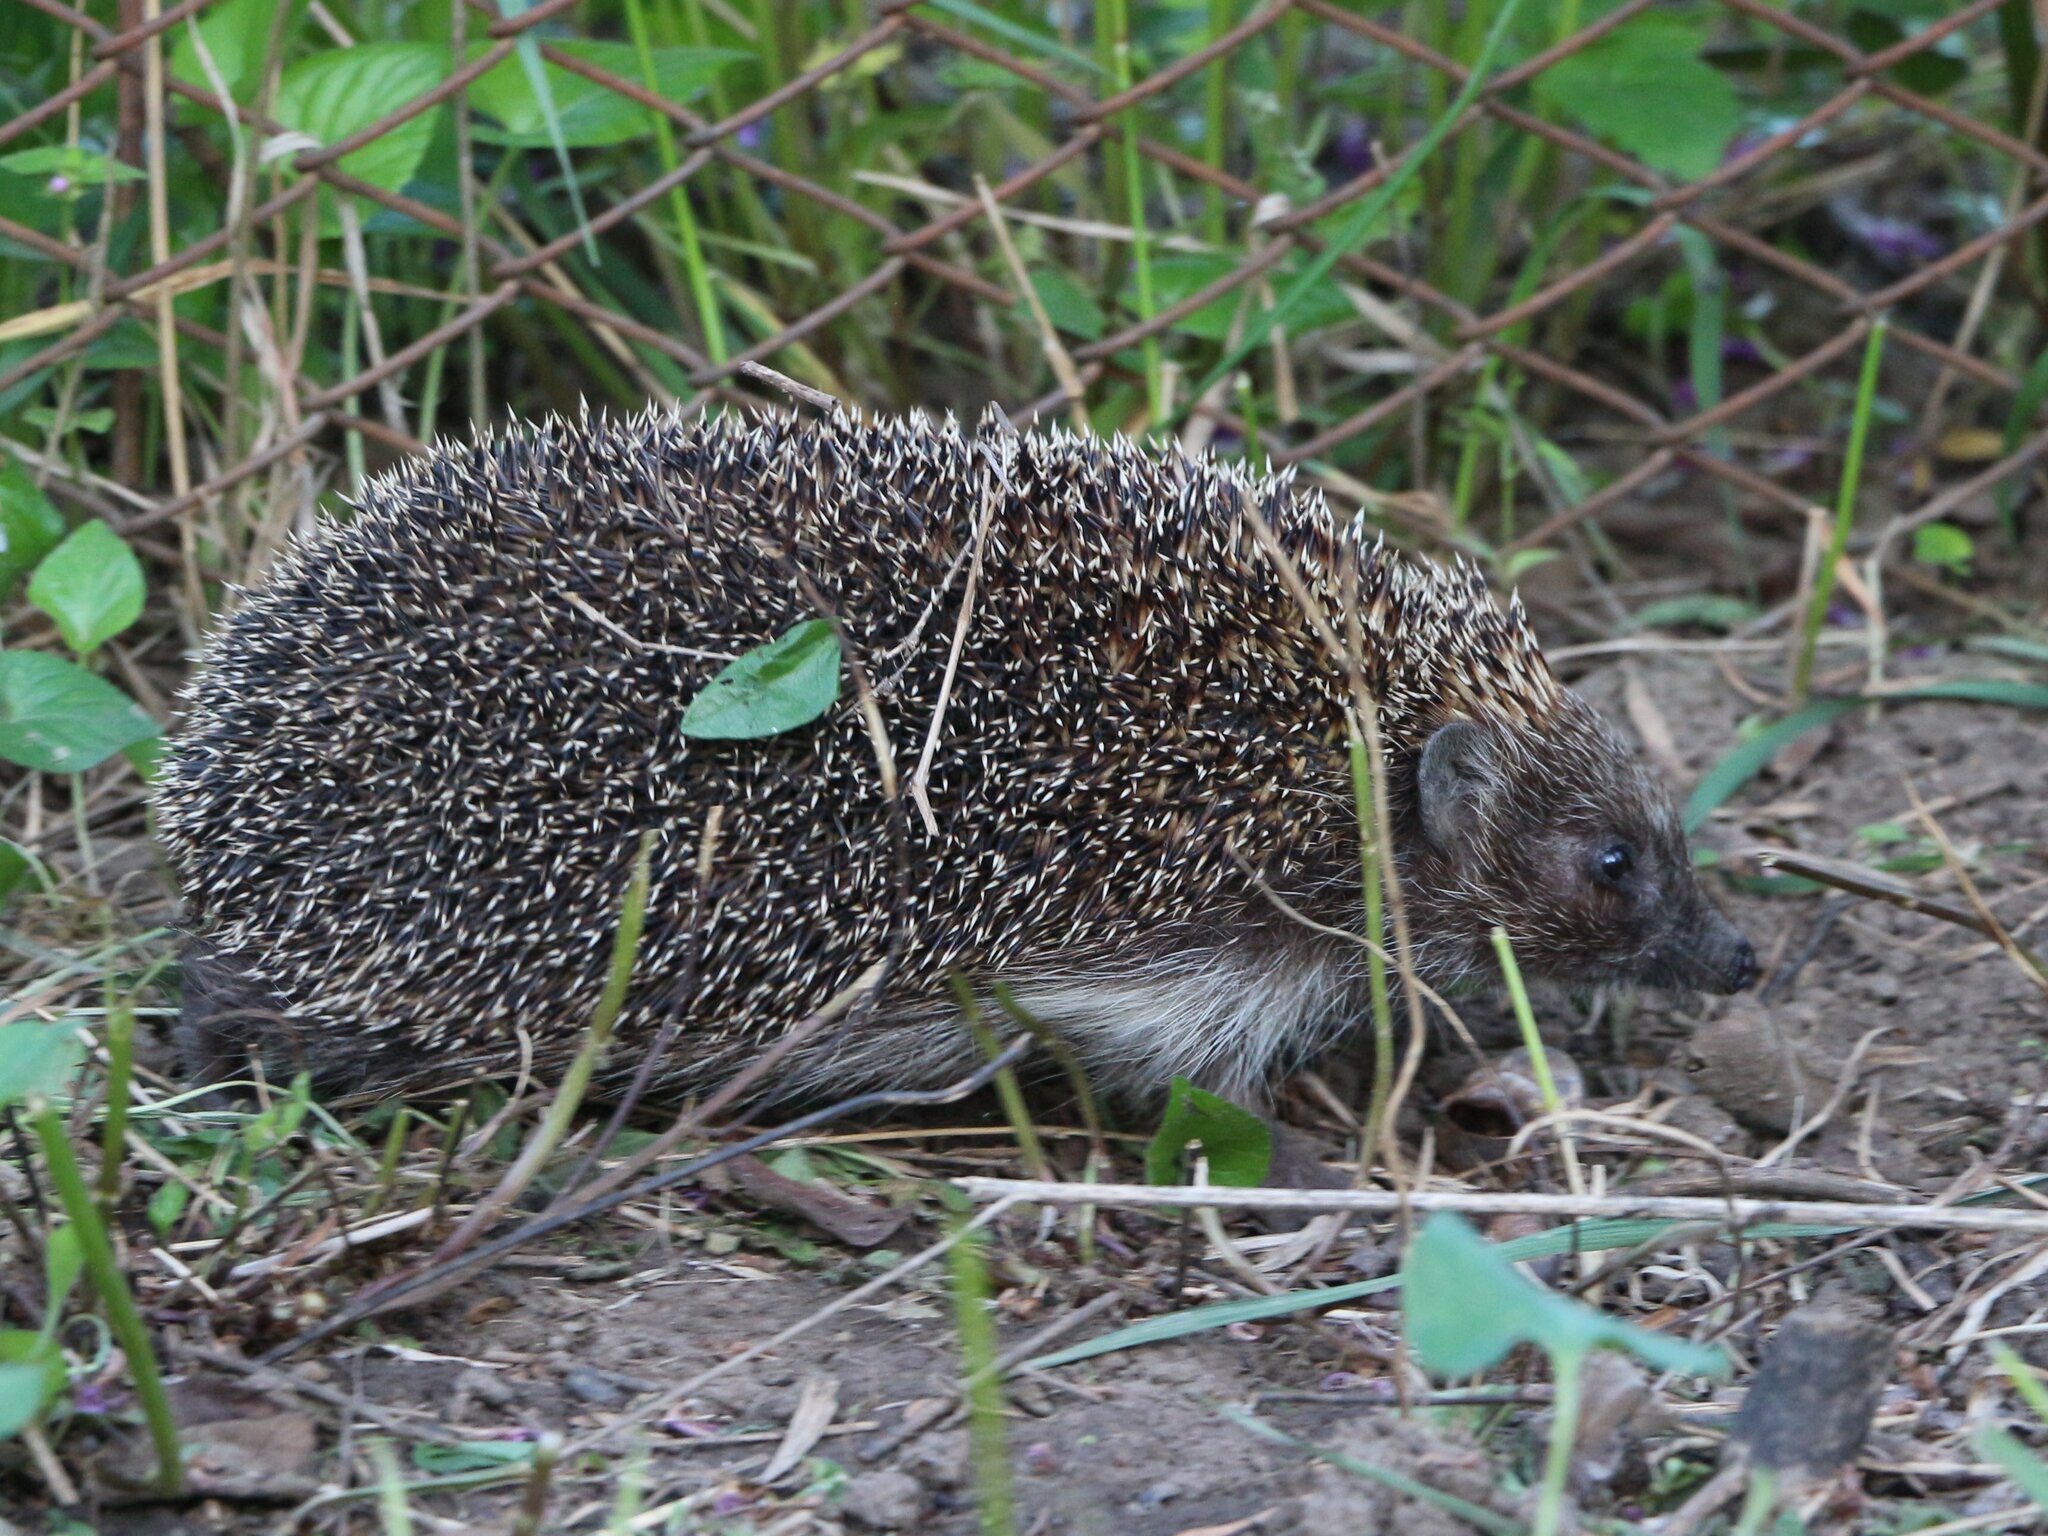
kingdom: Animalia
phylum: Chordata
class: Mammalia
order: Erinaceomorpha
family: Erinaceidae
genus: Erinaceus
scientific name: Erinaceus roumanicus
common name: Northern white-breasted hedgehog
